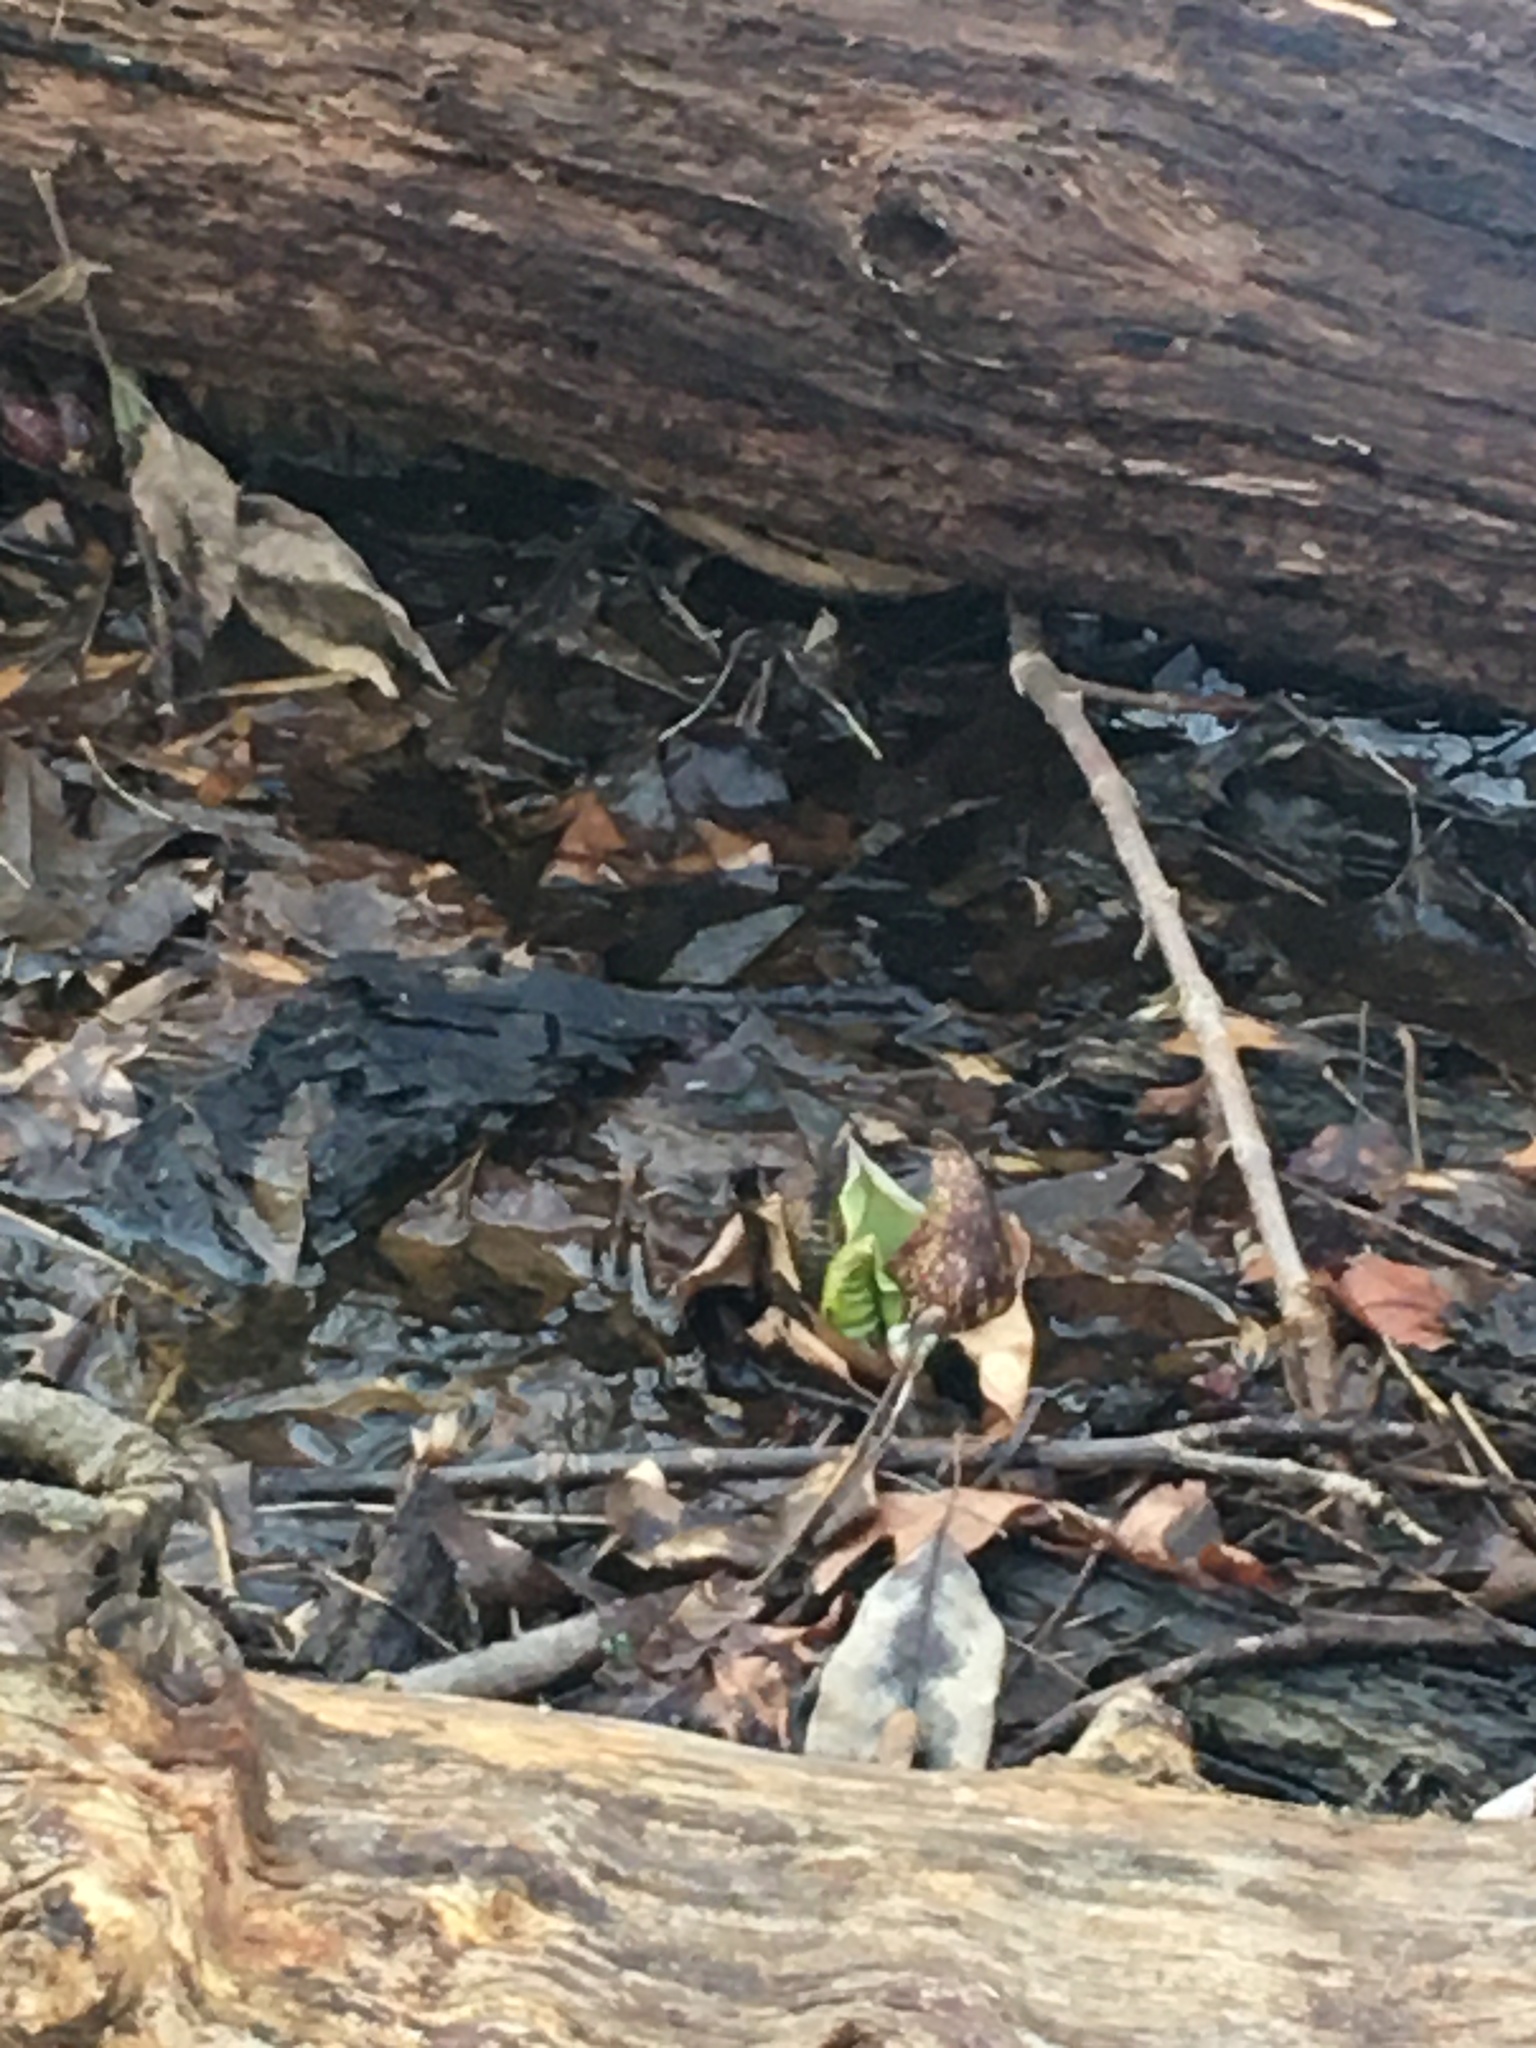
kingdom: Plantae
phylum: Tracheophyta
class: Liliopsida
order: Alismatales
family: Araceae
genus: Symplocarpus
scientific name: Symplocarpus foetidus
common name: Eastern skunk cabbage
